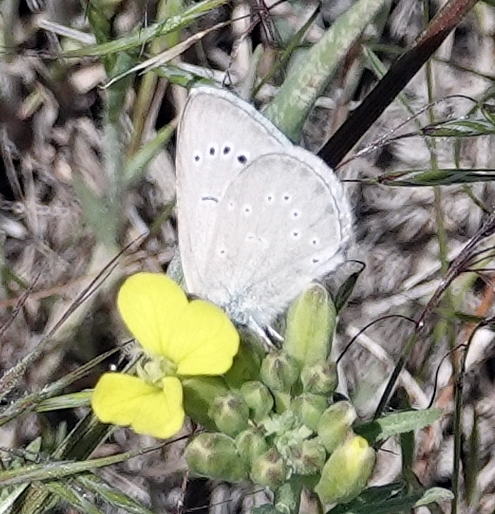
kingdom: Animalia
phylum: Arthropoda
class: Insecta
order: Lepidoptera
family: Lycaenidae
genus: Glaucopsyche
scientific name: Glaucopsyche lygdamus
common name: Silvery blue
